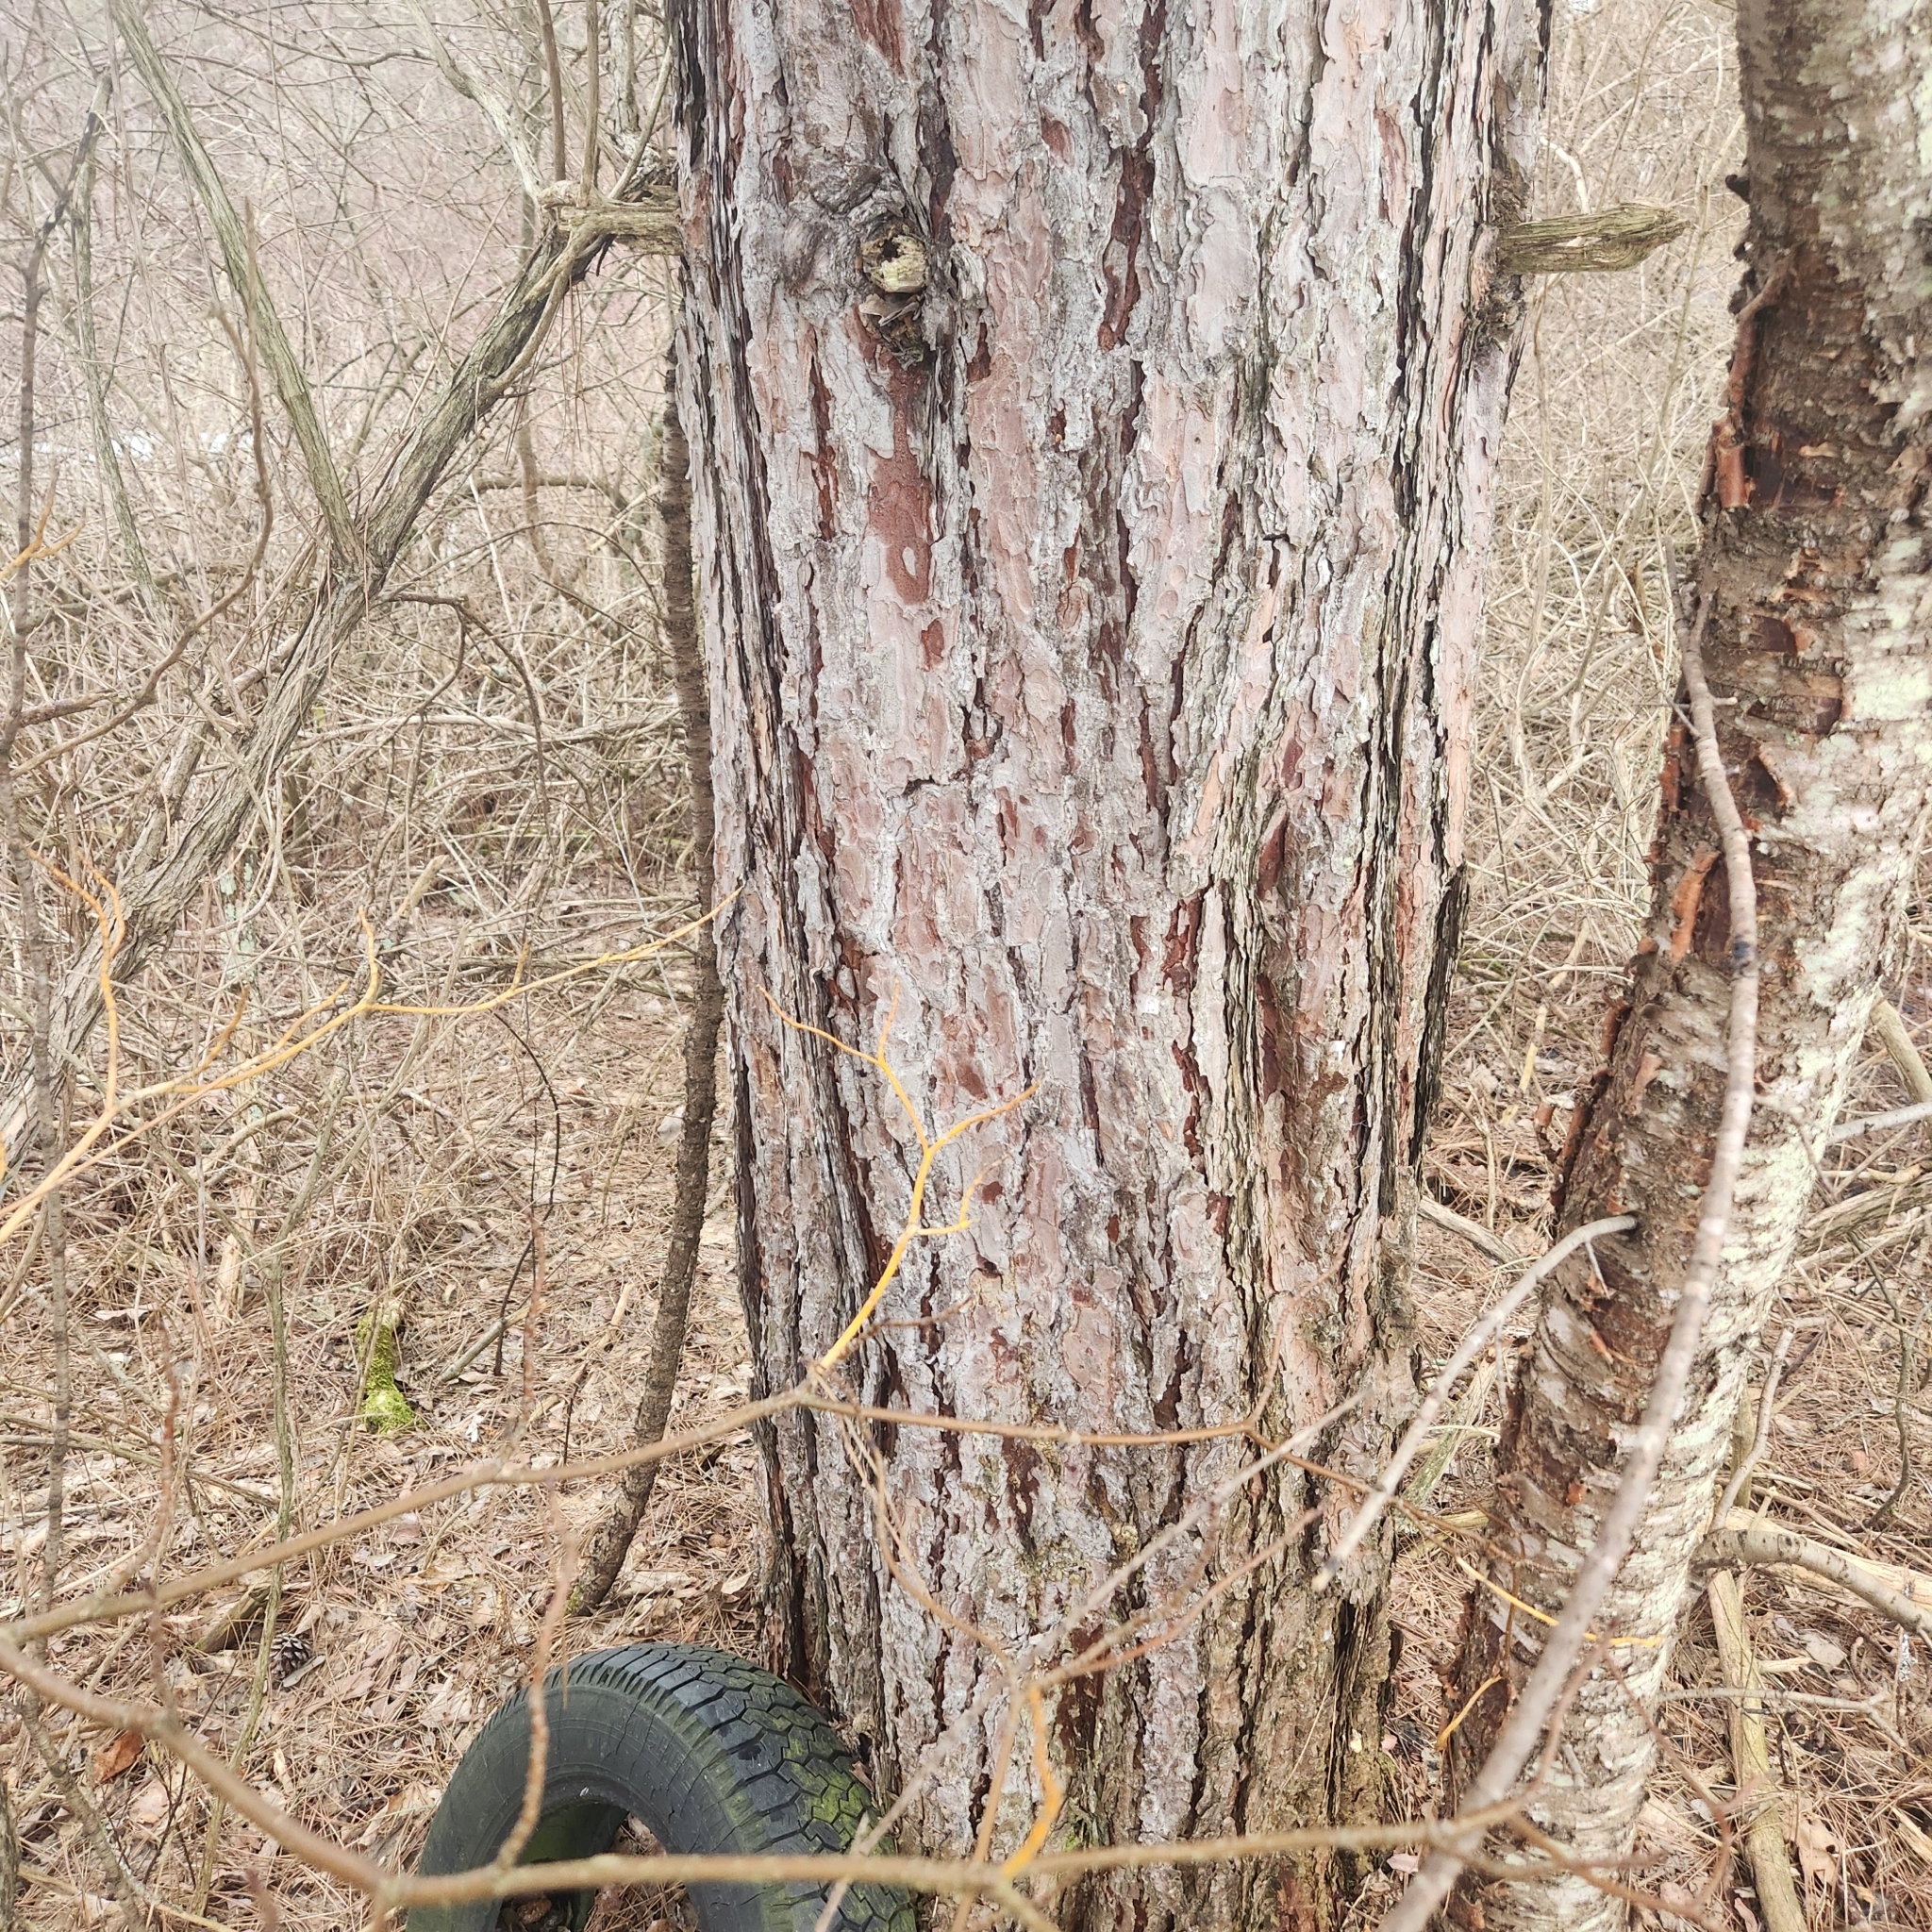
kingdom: Plantae
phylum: Tracheophyta
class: Pinopsida
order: Pinales
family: Pinaceae
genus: Pinus
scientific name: Pinus resinosa
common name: Norway pine
